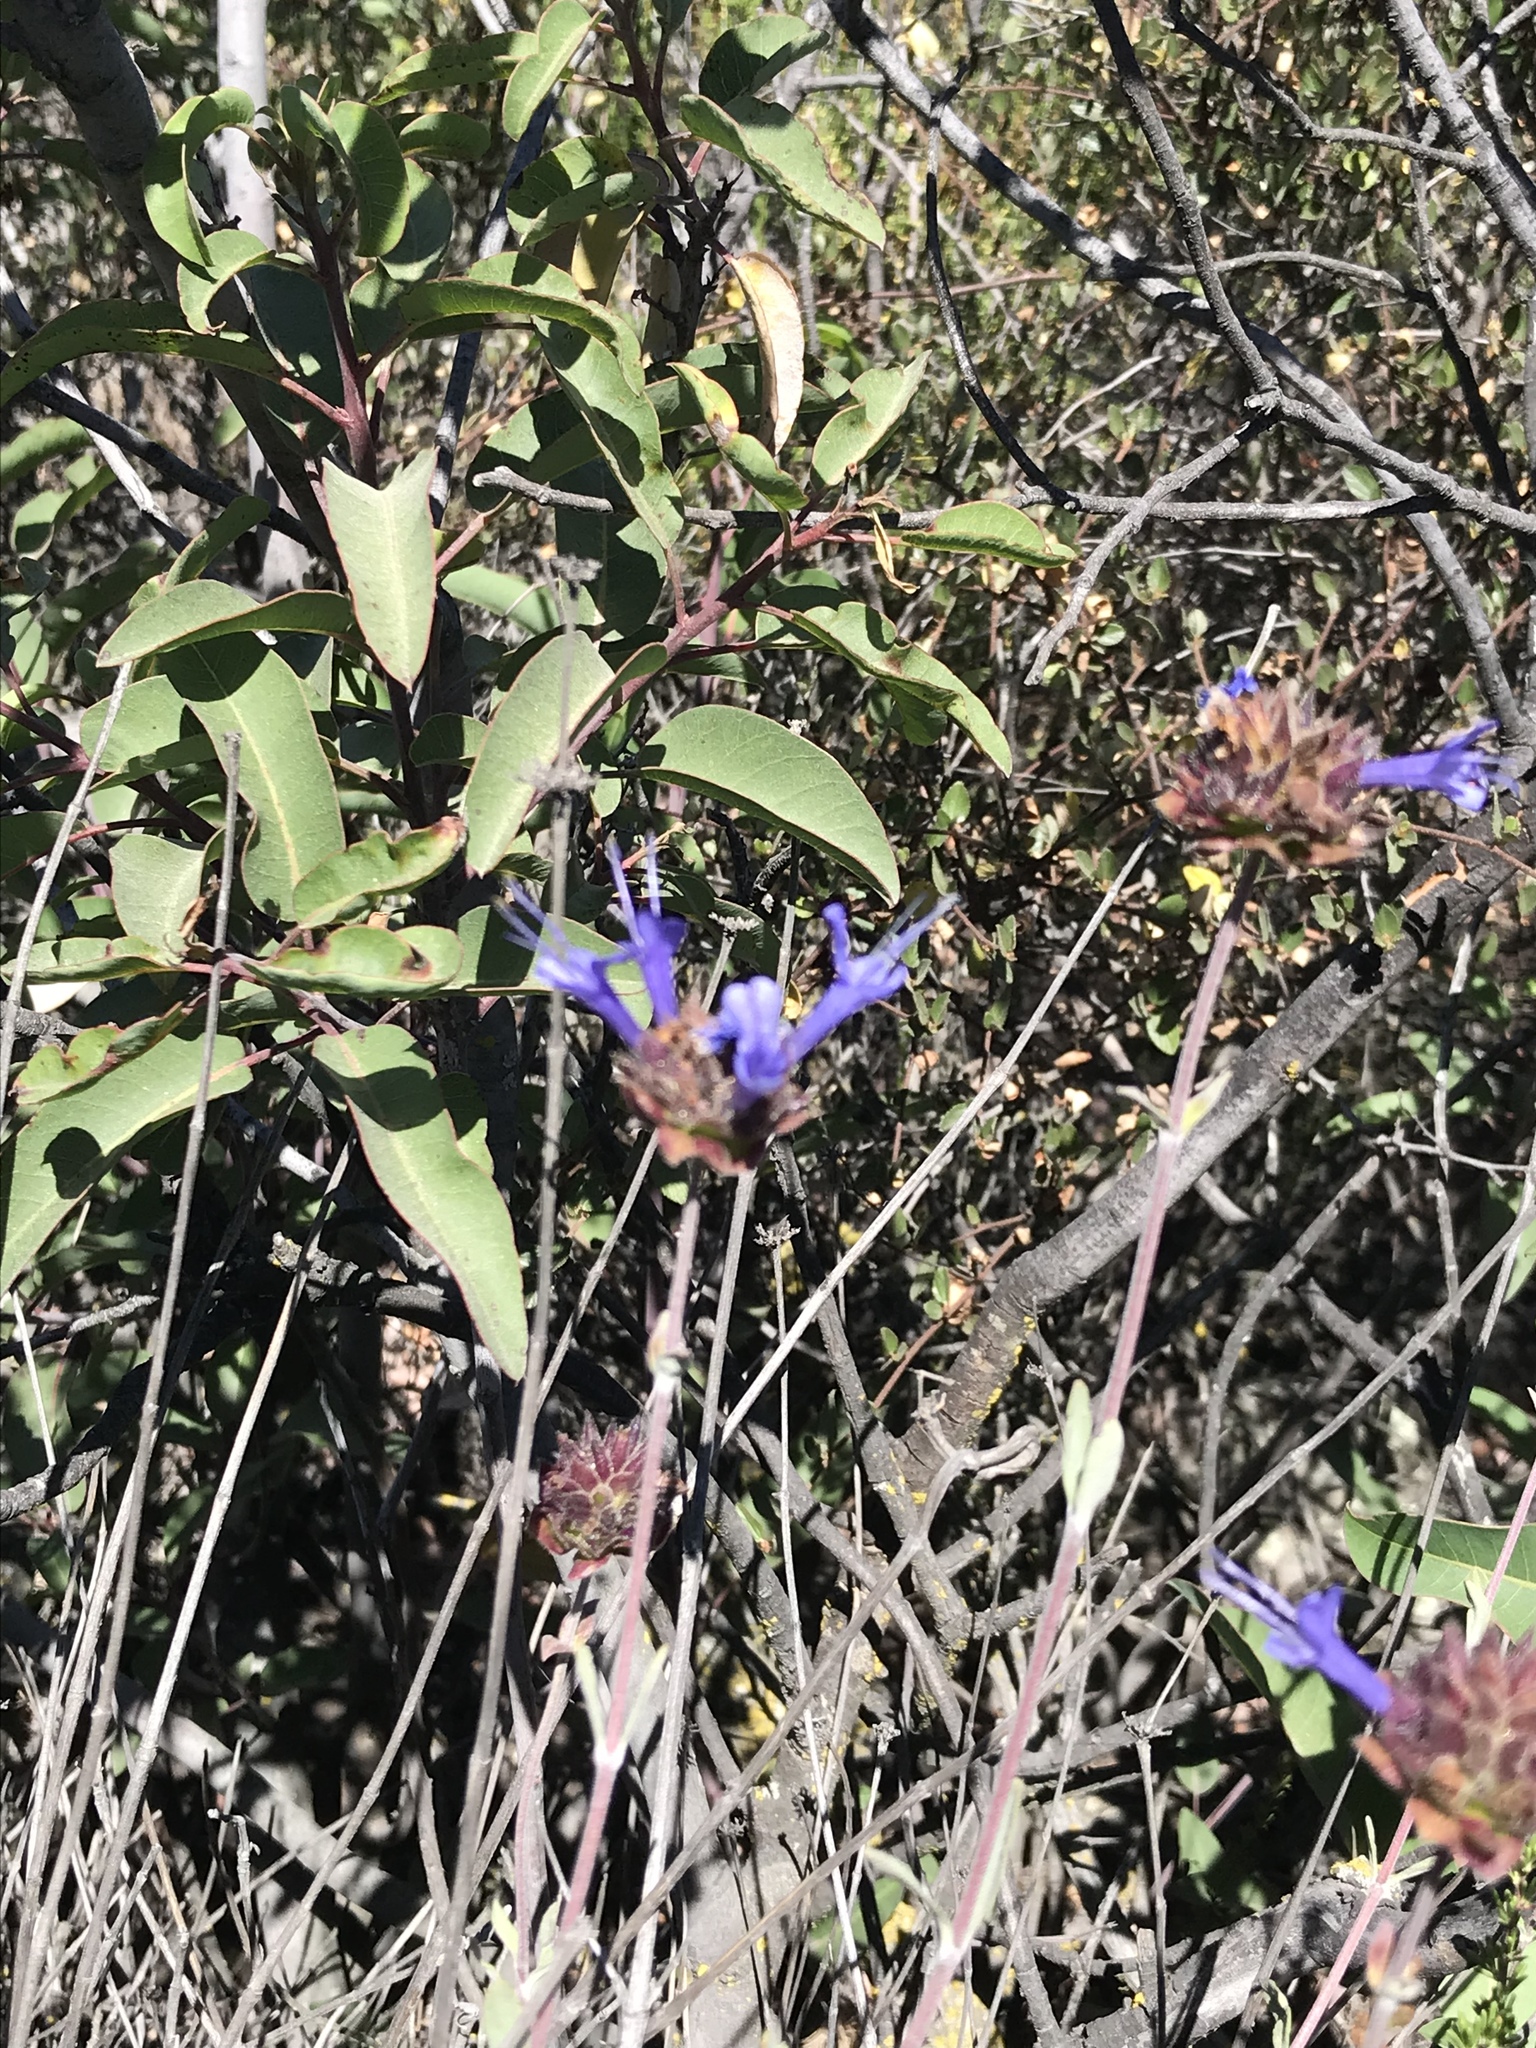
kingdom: Plantae
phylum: Tracheophyta
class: Magnoliopsida
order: Lamiales
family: Lamiaceae
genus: Salvia
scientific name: Salvia clevelandii
